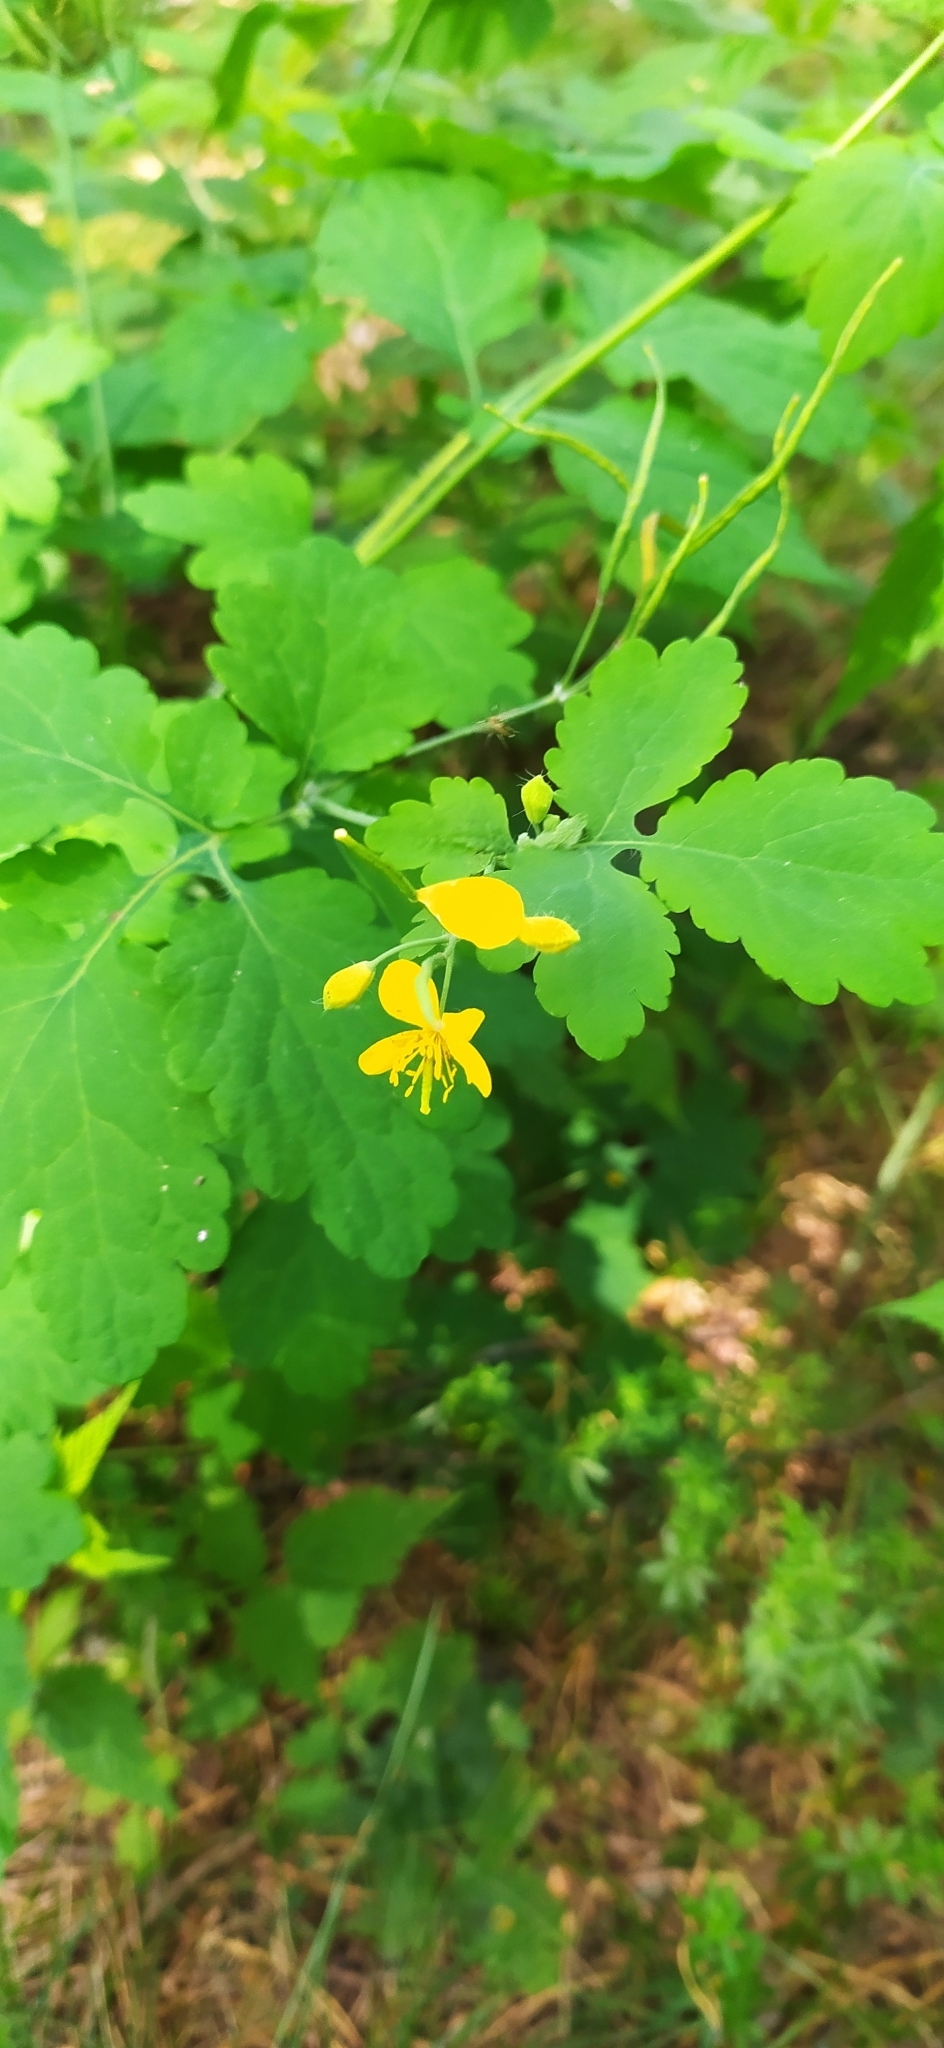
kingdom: Plantae
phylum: Tracheophyta
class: Magnoliopsida
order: Ranunculales
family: Papaveraceae
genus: Chelidonium
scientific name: Chelidonium majus
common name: Greater celandine
